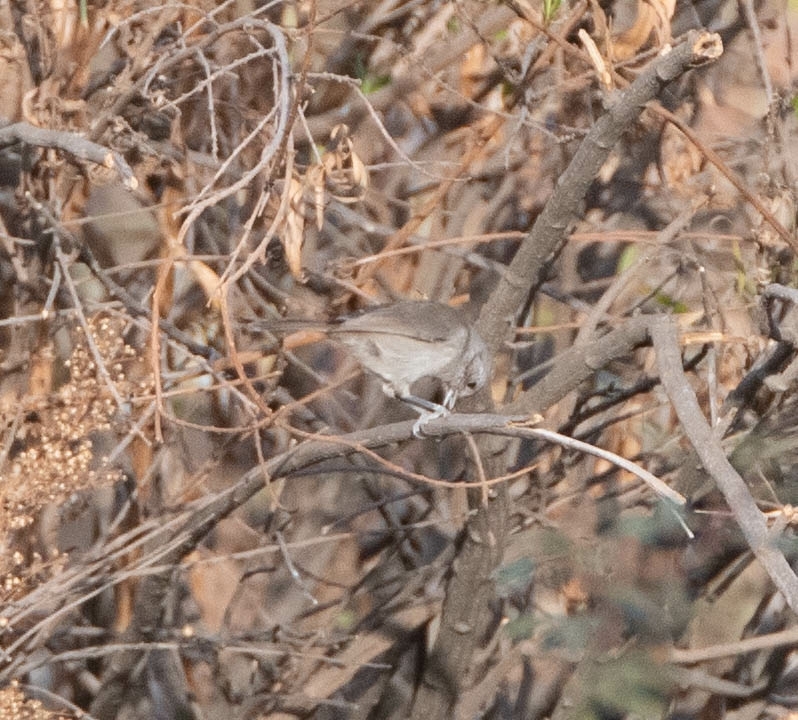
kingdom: Animalia
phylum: Chordata
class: Aves
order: Passeriformes
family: Paridae
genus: Baeolophus
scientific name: Baeolophus inornatus
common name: Oak titmouse
